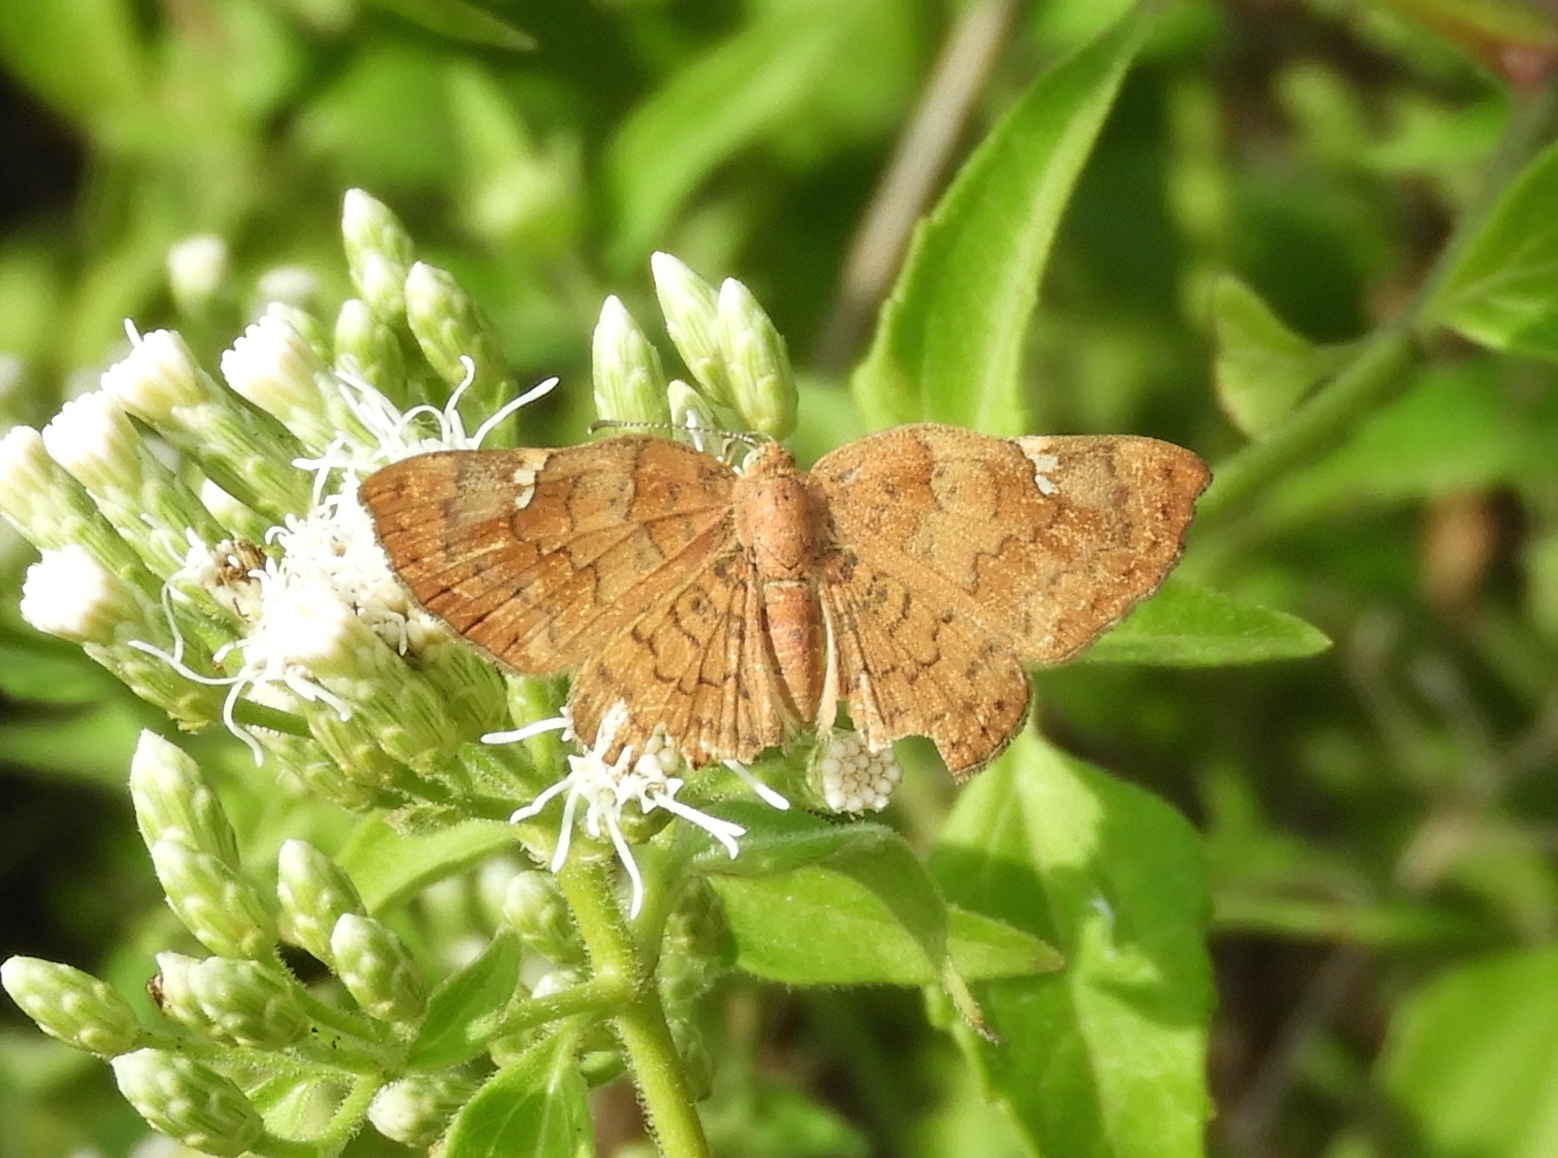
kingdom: Animalia
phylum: Arthropoda
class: Insecta
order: Lepidoptera
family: Riodinidae
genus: Curvie
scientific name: Curvie emesia
